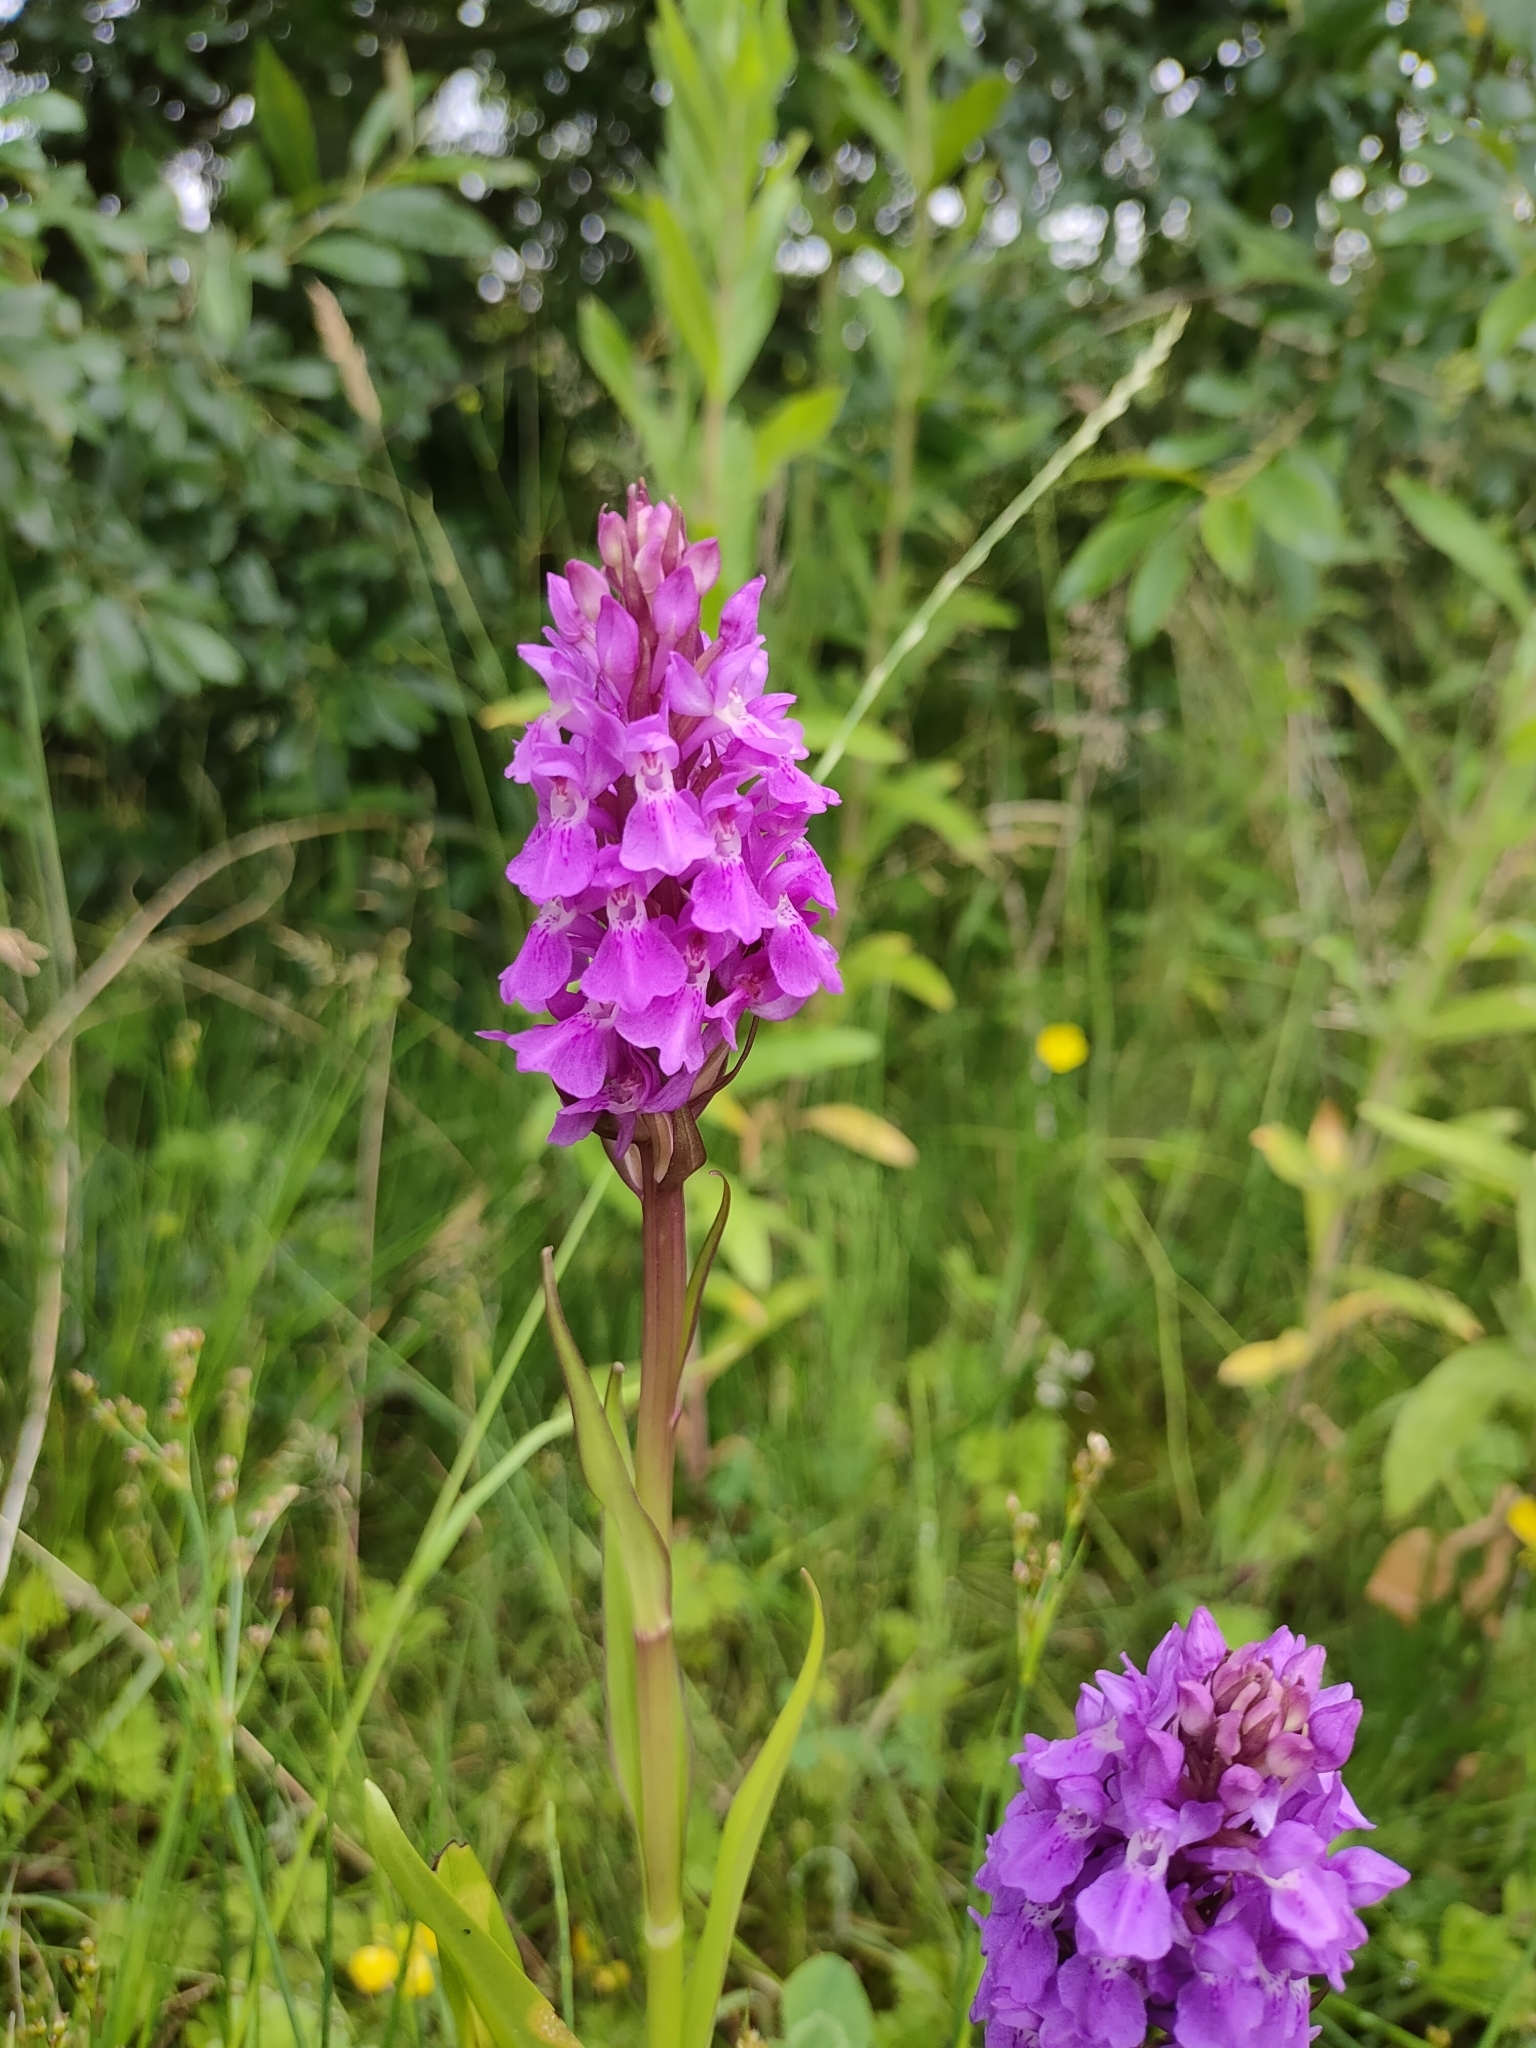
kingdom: Plantae
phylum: Tracheophyta
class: Liliopsida
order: Asparagales
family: Orchidaceae
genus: Dactylorhiza
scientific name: Dactylorhiza majalis
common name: Marsh orchid
